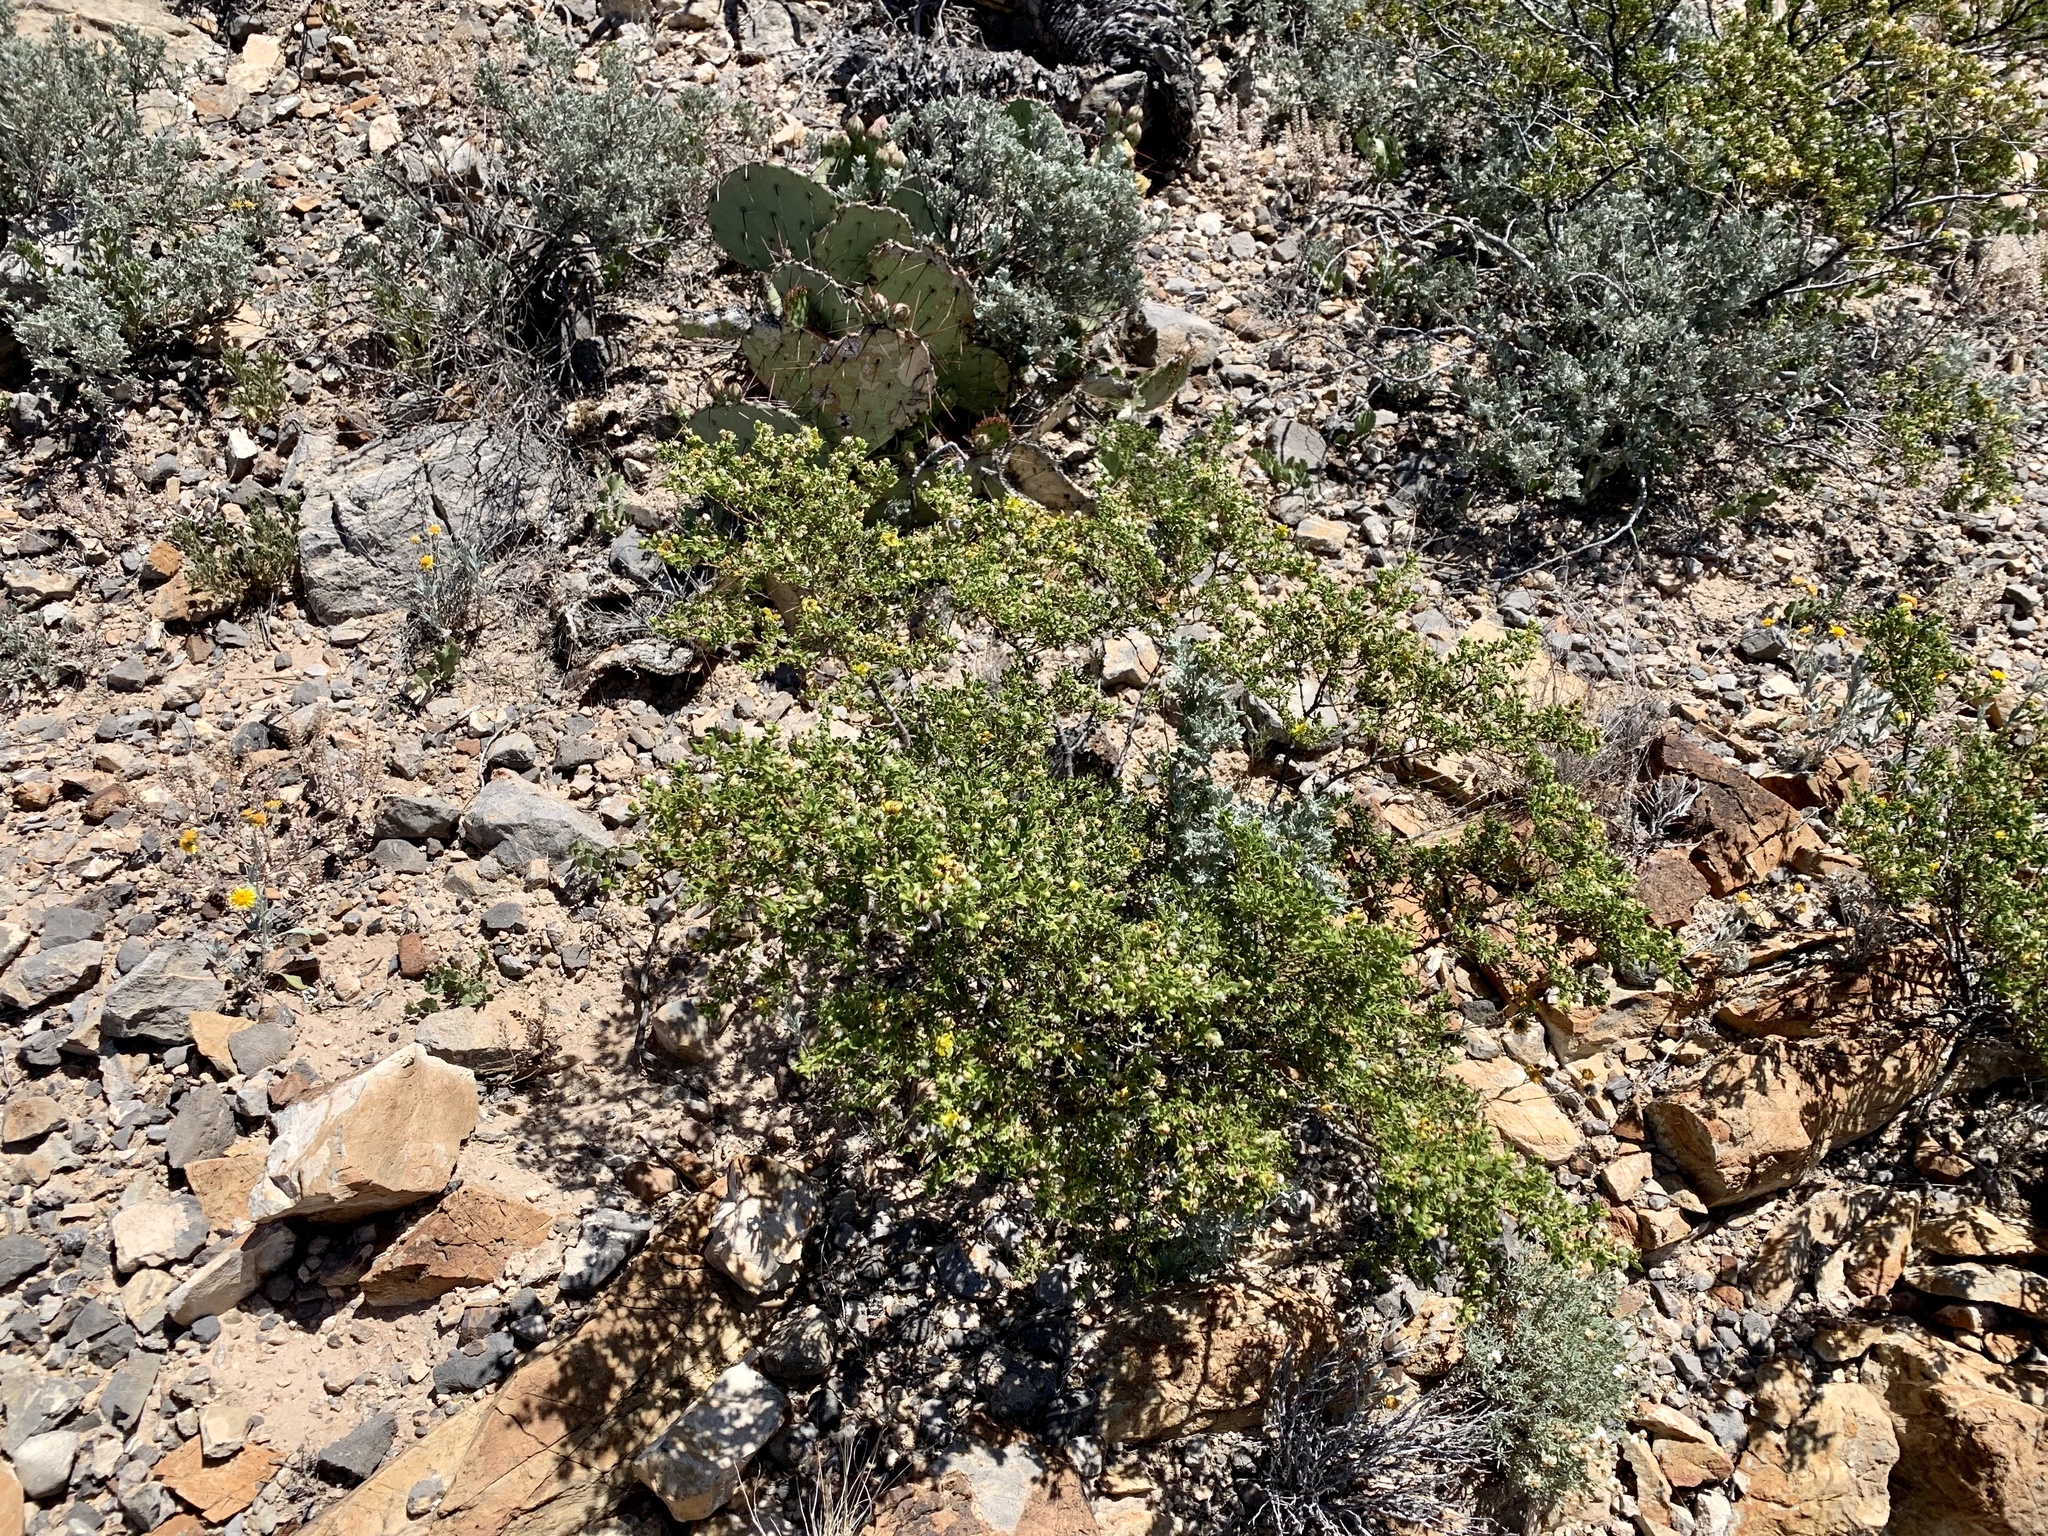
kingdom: Plantae
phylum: Tracheophyta
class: Magnoliopsida
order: Zygophyllales
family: Zygophyllaceae
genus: Larrea
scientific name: Larrea tridentata
